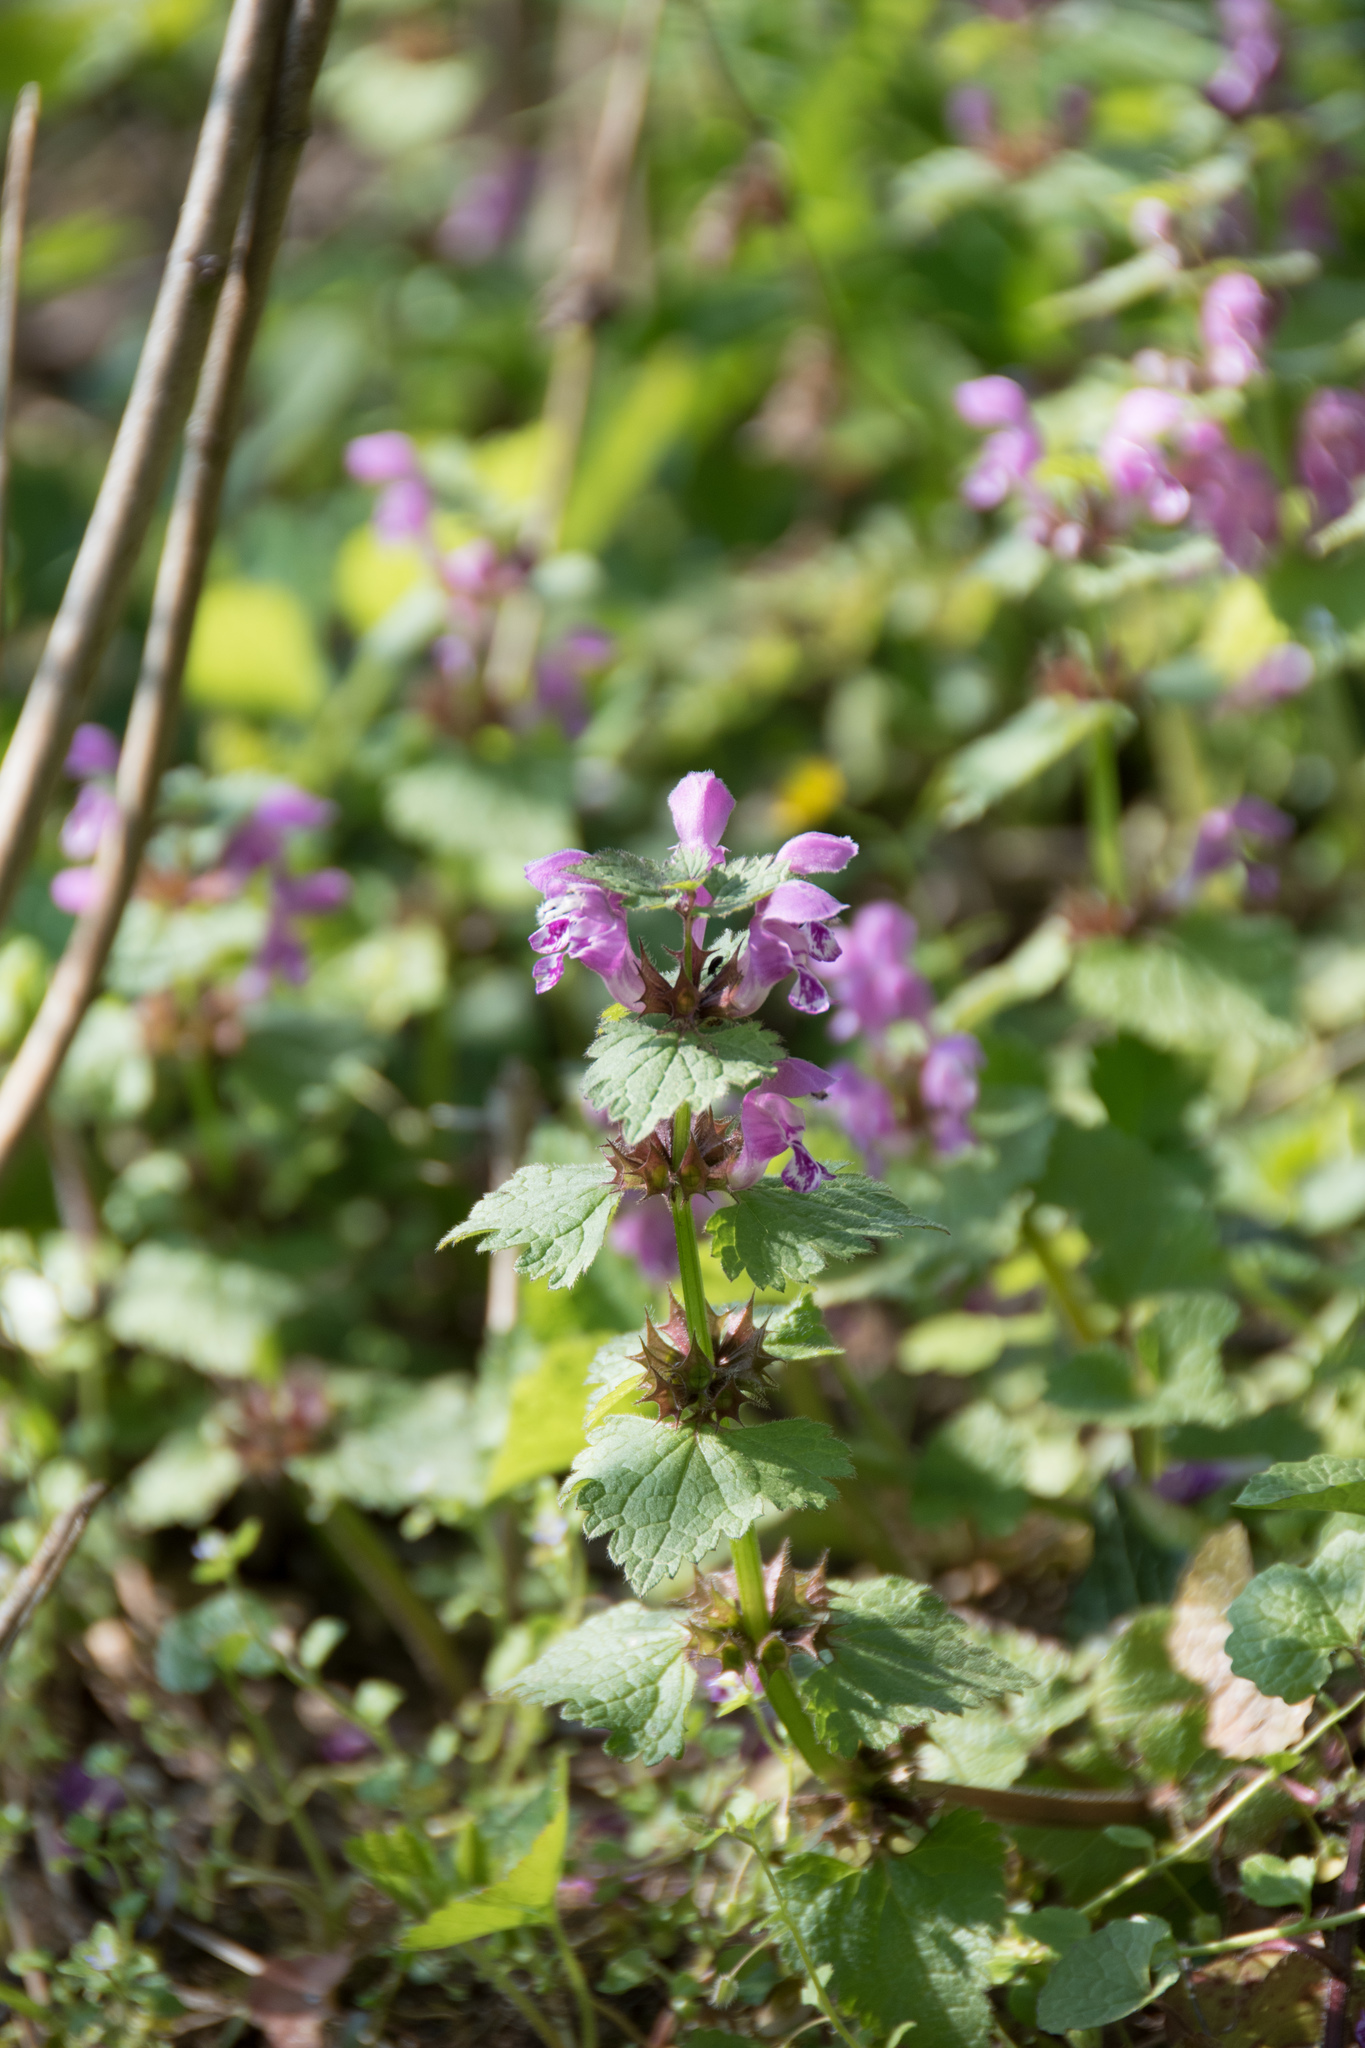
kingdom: Plantae
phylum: Tracheophyta
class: Magnoliopsida
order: Lamiales
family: Lamiaceae
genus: Lamium
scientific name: Lamium maculatum
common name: Spotted dead-nettle
